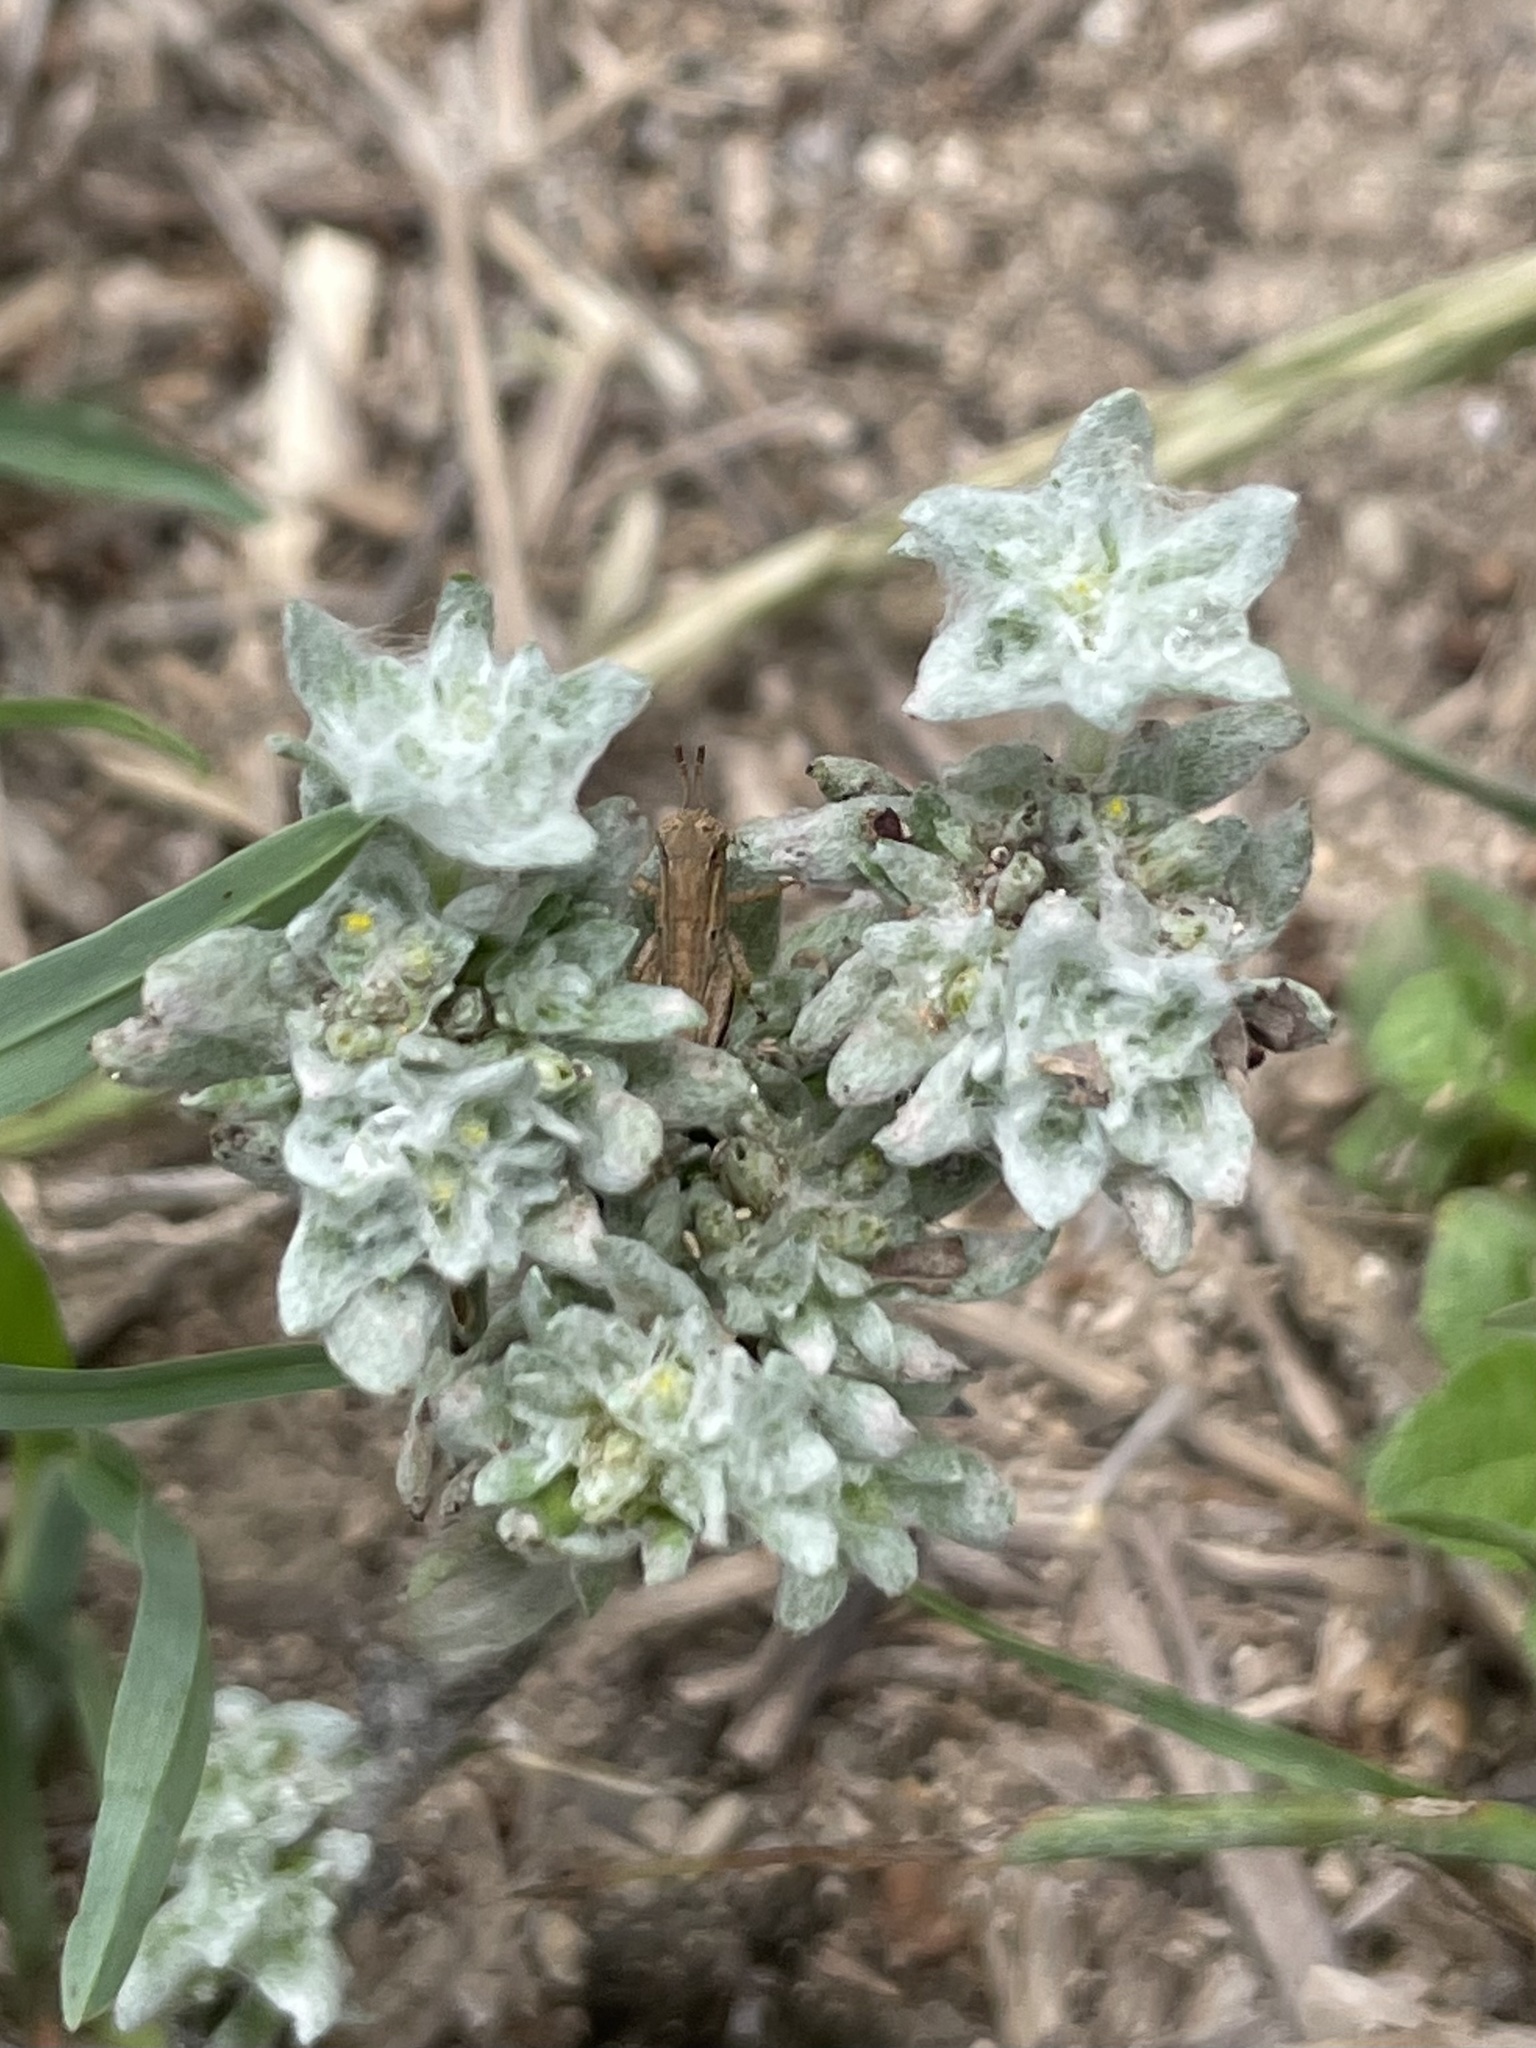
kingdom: Plantae
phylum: Tracheophyta
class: Magnoliopsida
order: Asterales
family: Asteraceae
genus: Diaperia
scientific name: Diaperia prolifera
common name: Big-head rabbit-tobacco
